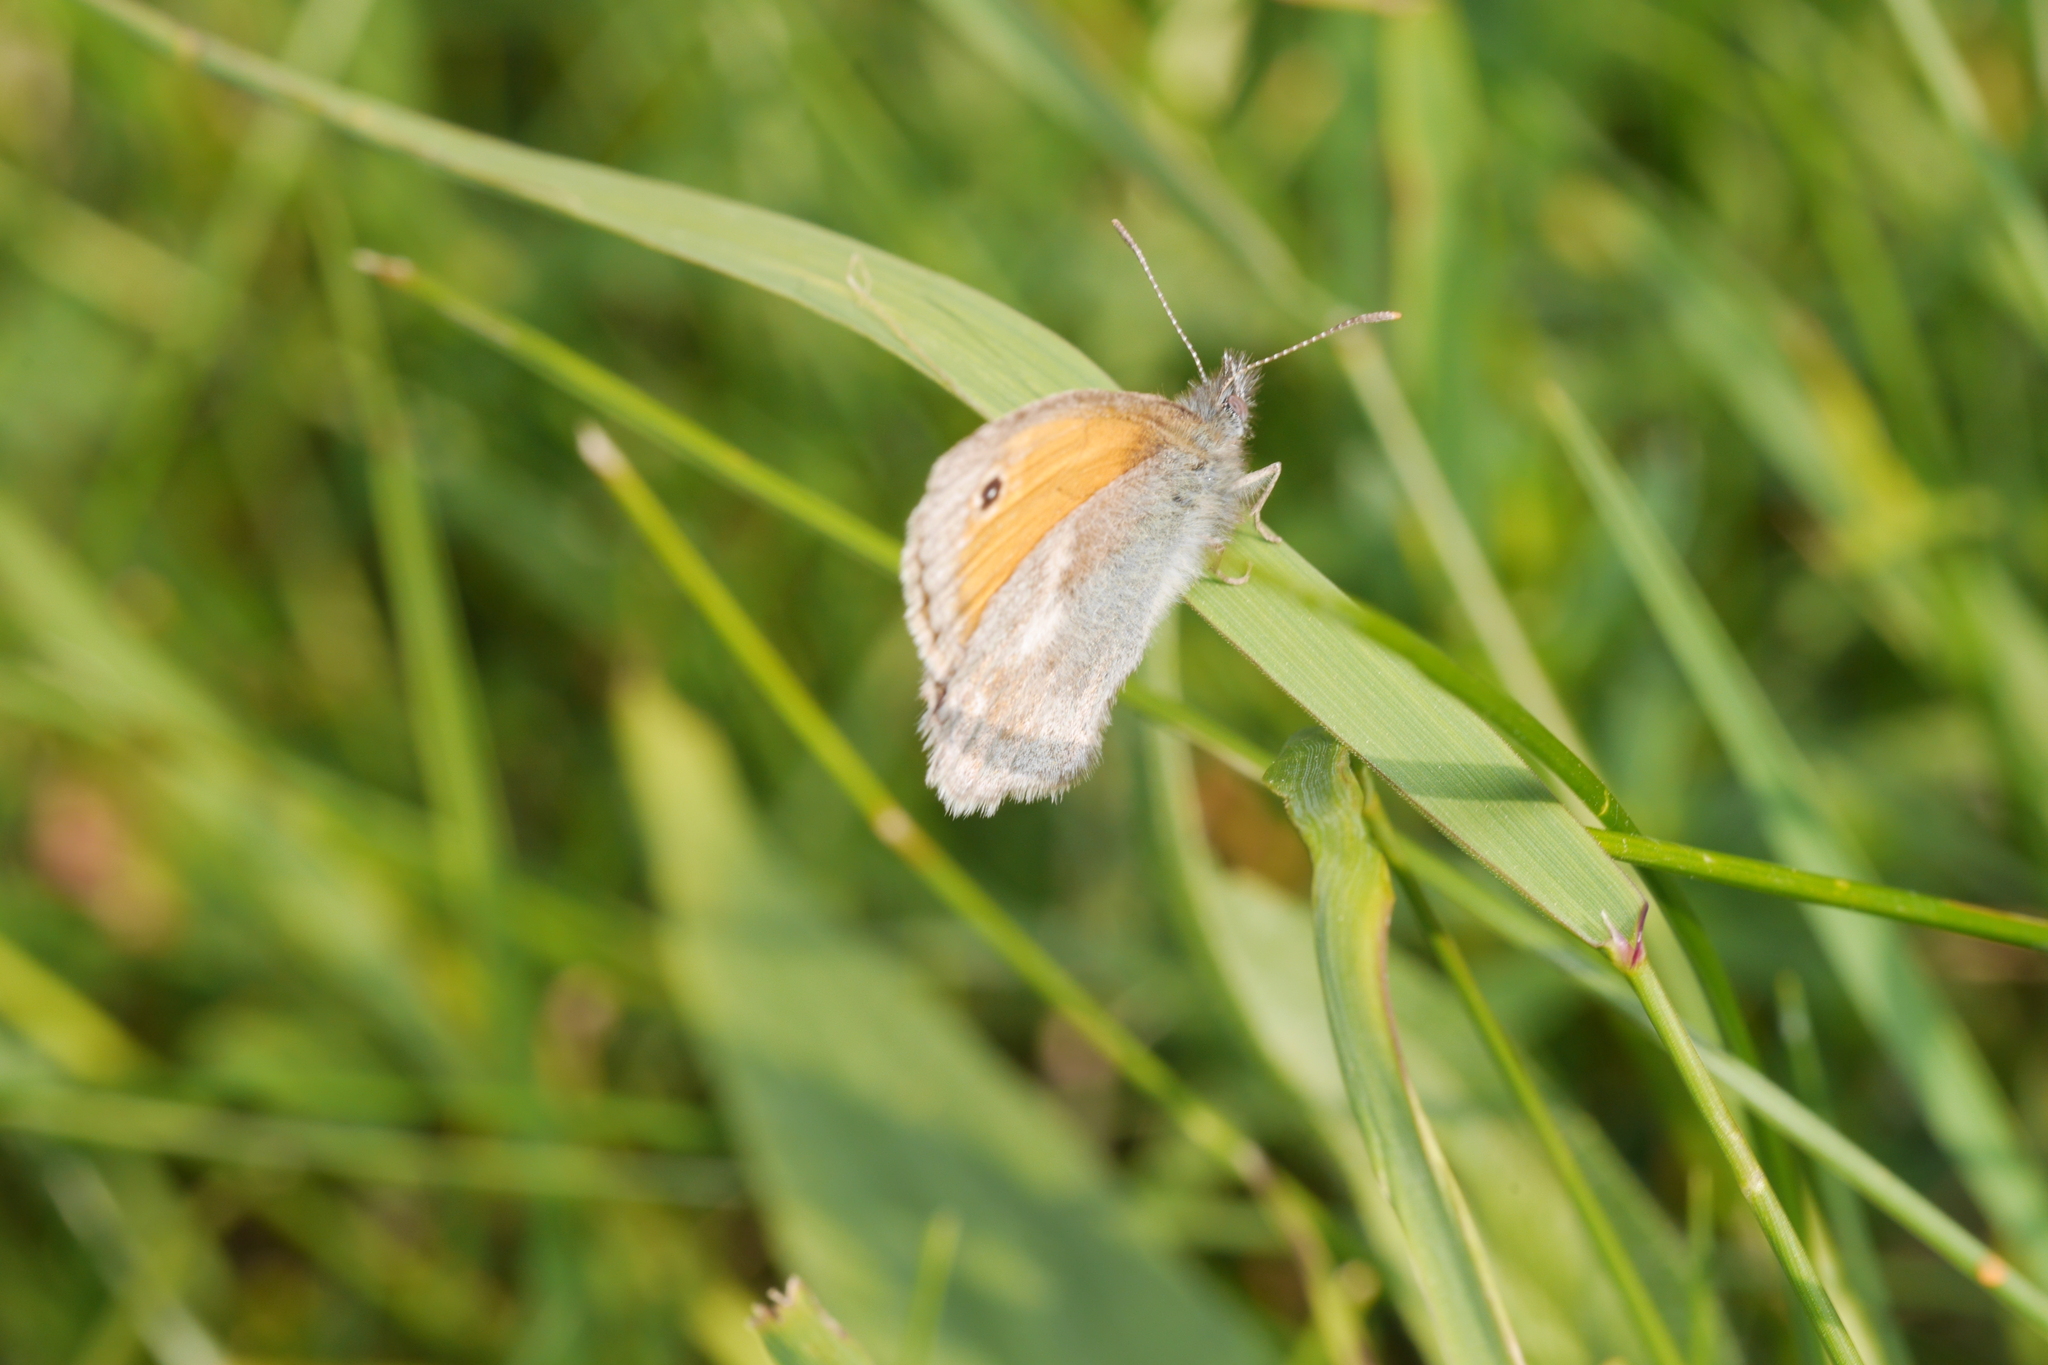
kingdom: Animalia
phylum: Arthropoda
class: Insecta
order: Lepidoptera
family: Nymphalidae
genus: Coenonympha
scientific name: Coenonympha pamphilus
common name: Small heath
